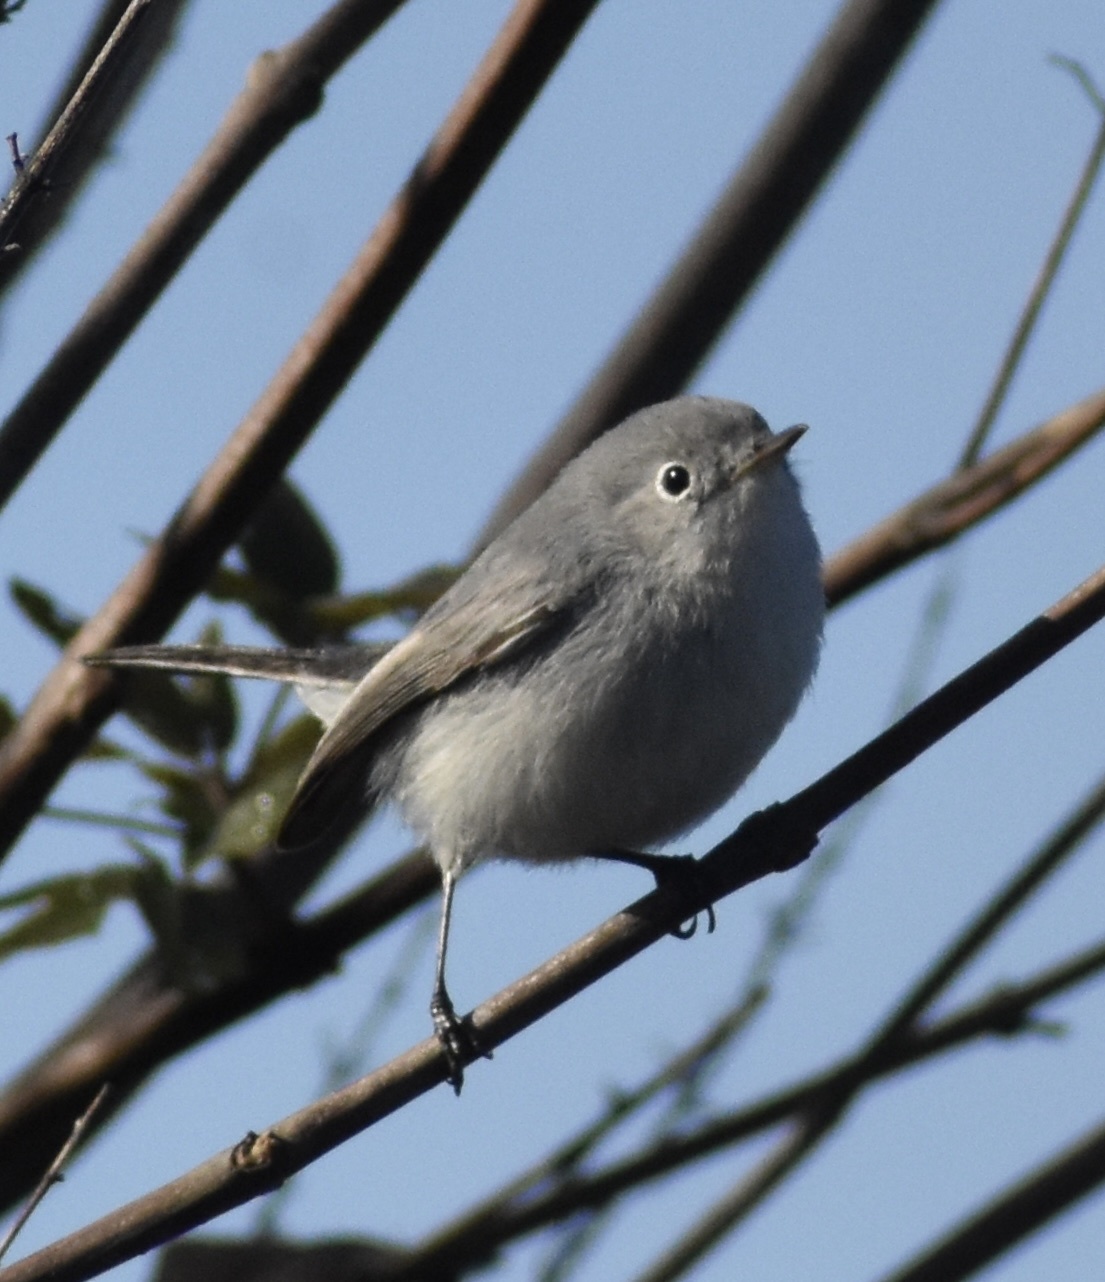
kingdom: Animalia
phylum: Chordata
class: Aves
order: Passeriformes
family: Polioptilidae
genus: Polioptila
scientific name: Polioptila caerulea
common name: Blue-gray gnatcatcher
